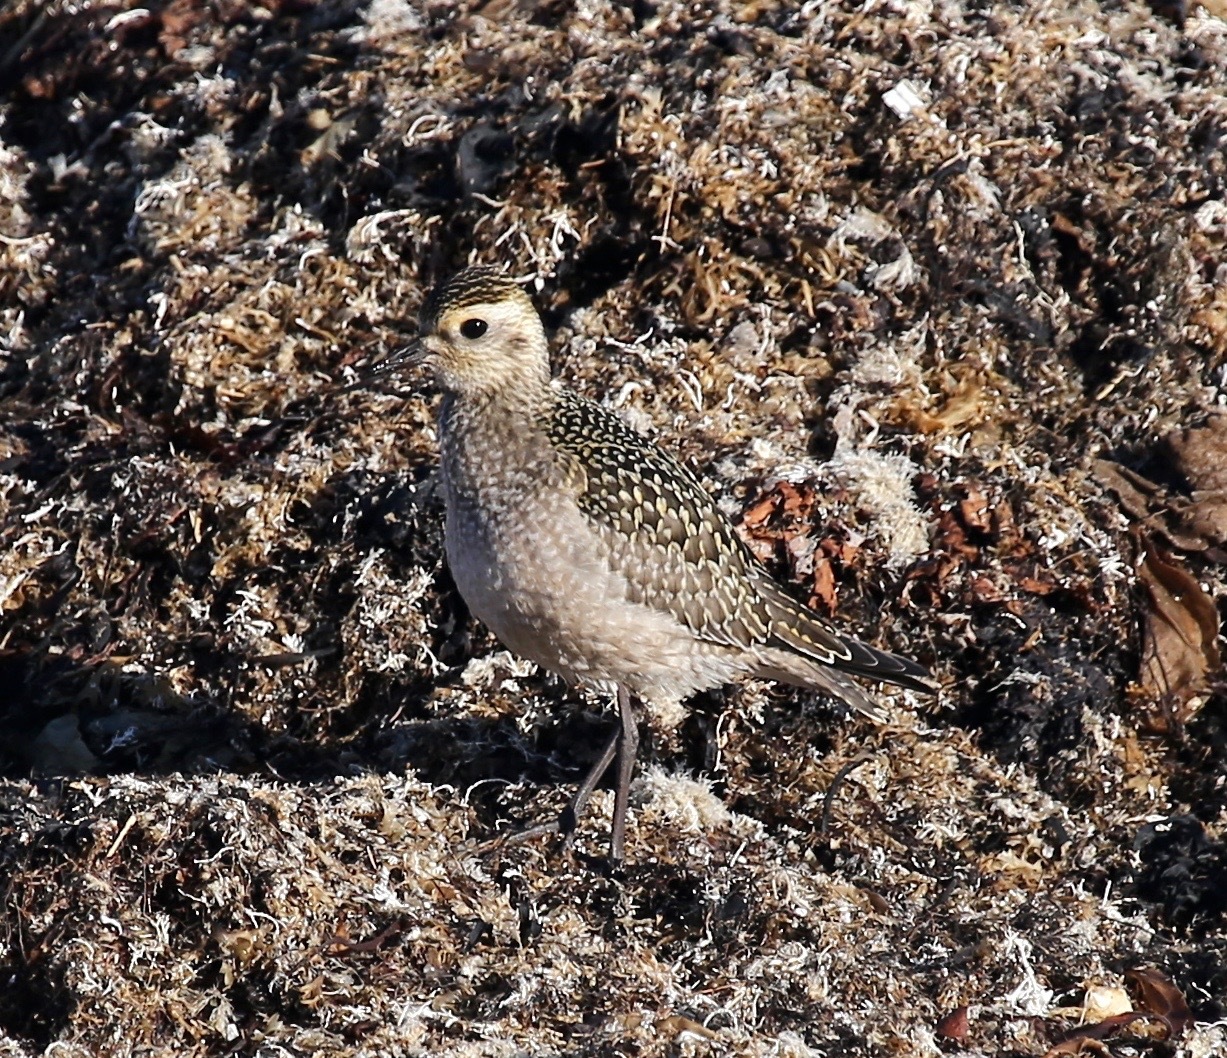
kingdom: Animalia
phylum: Chordata
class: Aves
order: Charadriiformes
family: Charadriidae
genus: Pluvialis
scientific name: Pluvialis dominica
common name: American golden plover
